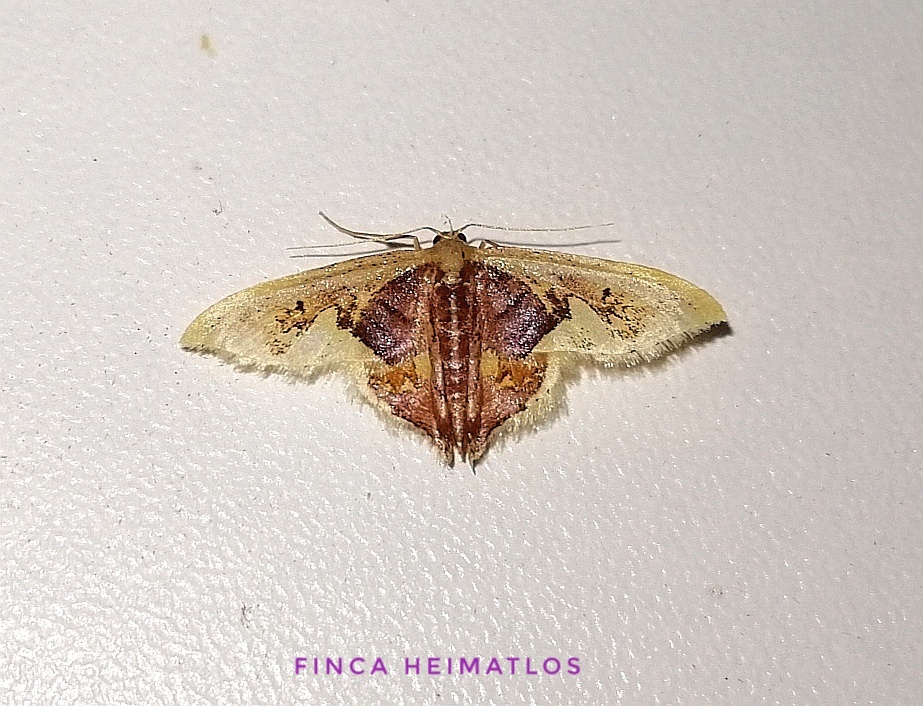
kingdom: Animalia
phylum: Arthropoda
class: Insecta
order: Lepidoptera
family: Geometridae
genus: Idaea
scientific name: Idaea flavicosta
